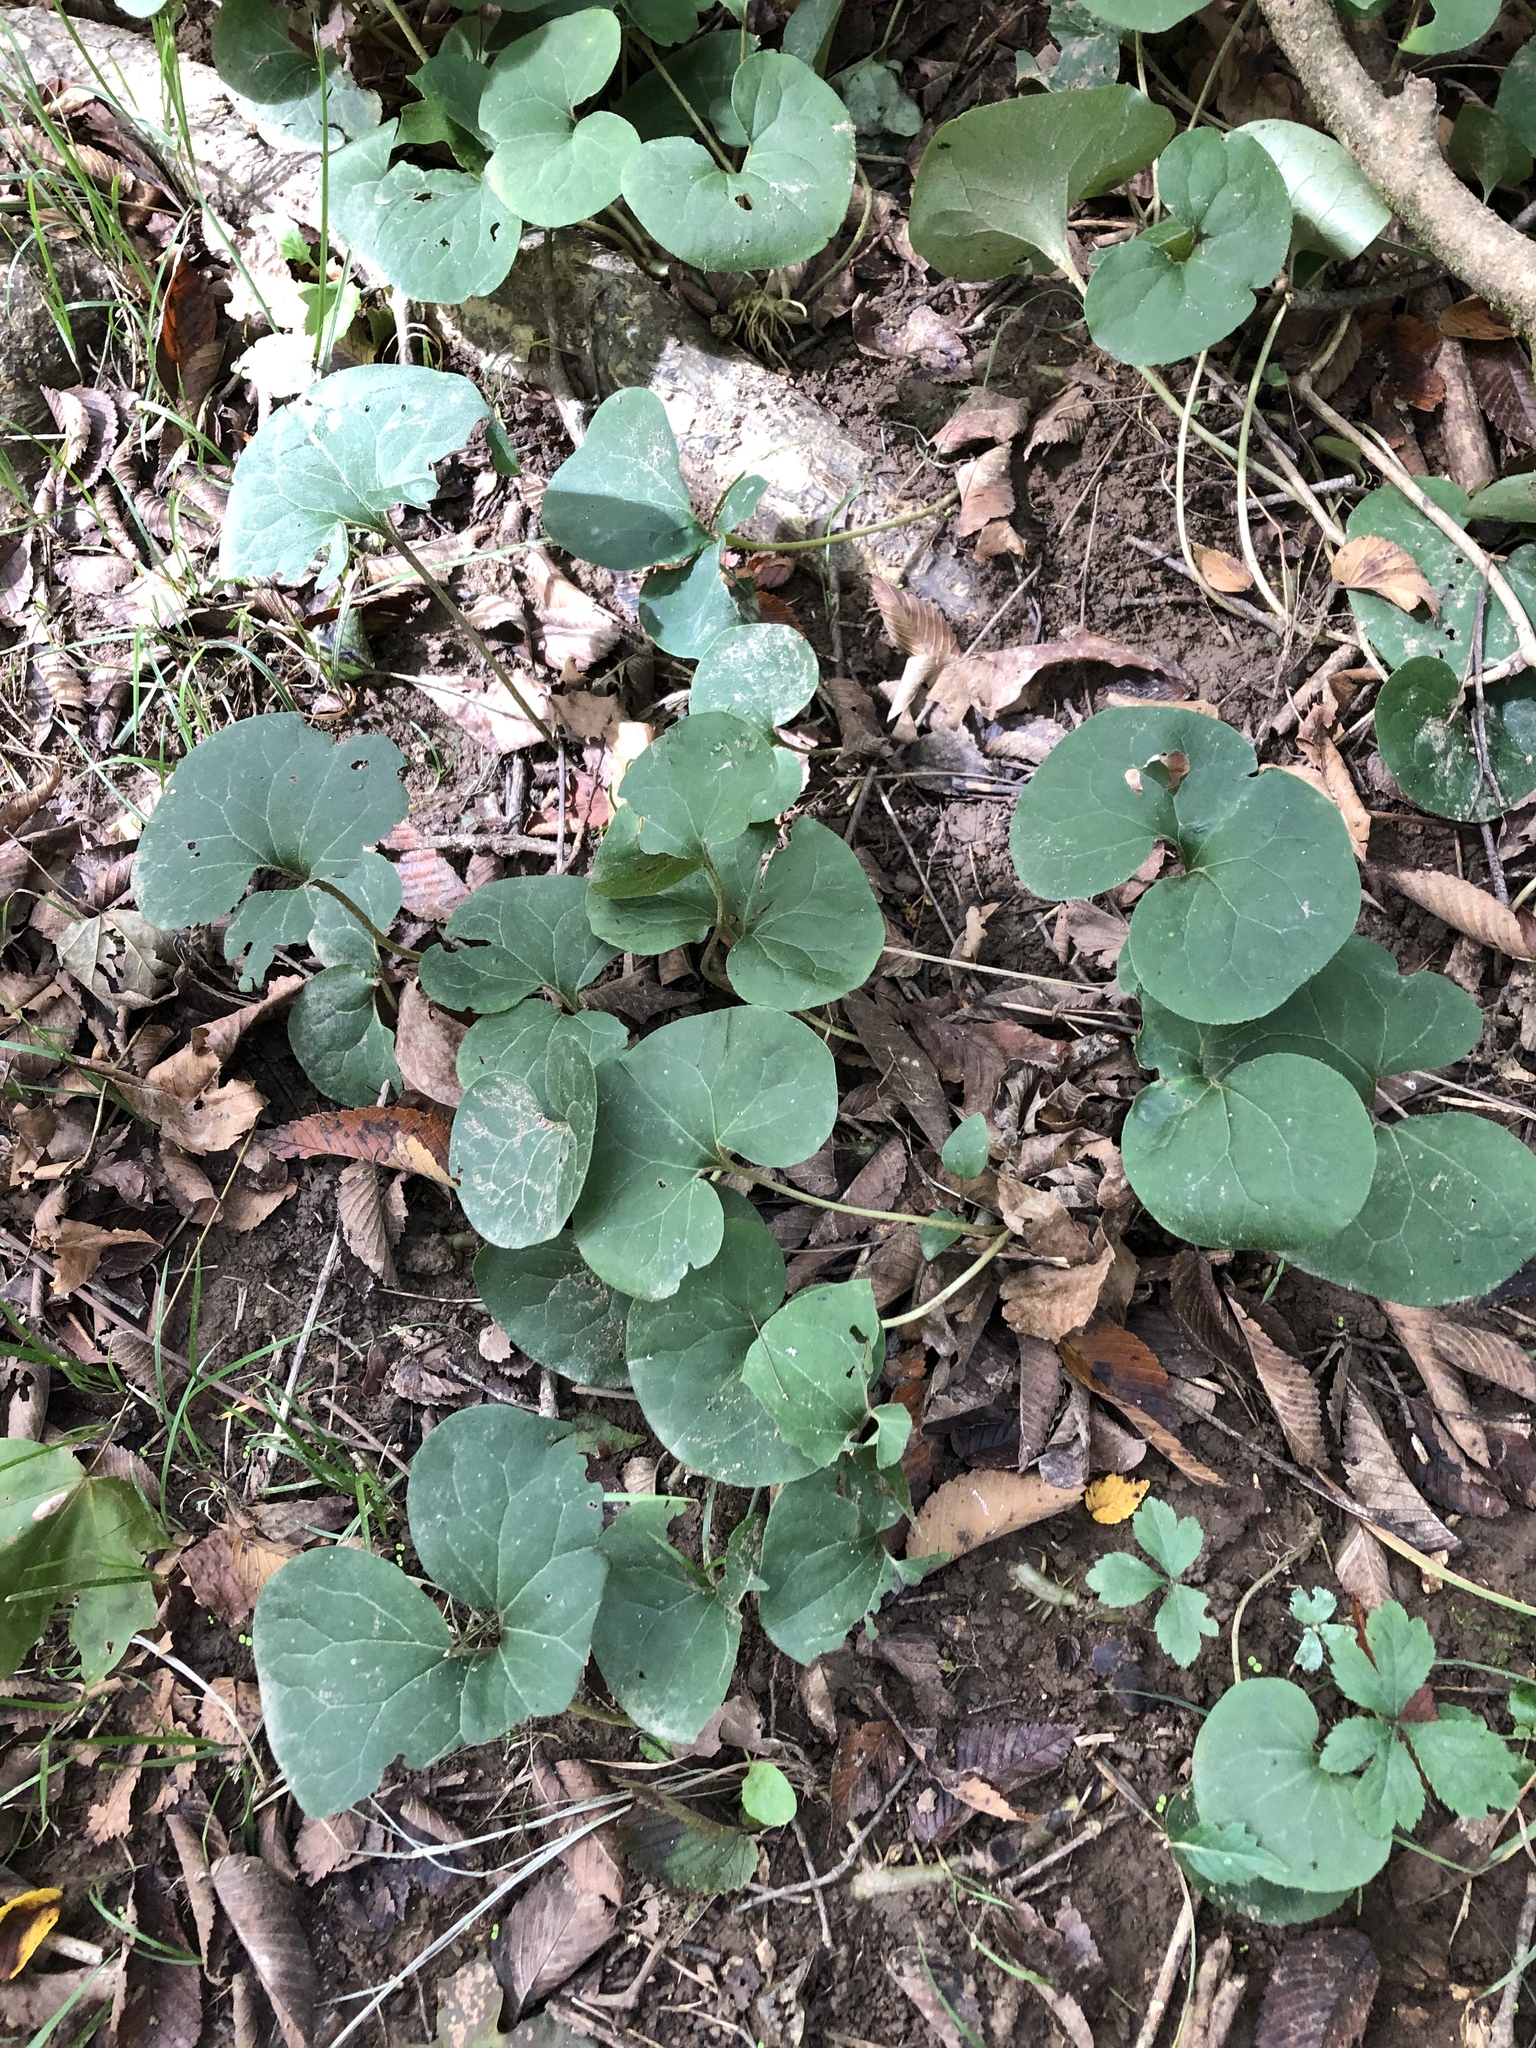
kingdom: Plantae
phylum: Tracheophyta
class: Magnoliopsida
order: Piperales
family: Aristolochiaceae
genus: Asarum
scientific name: Asarum canadense
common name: Wild ginger
